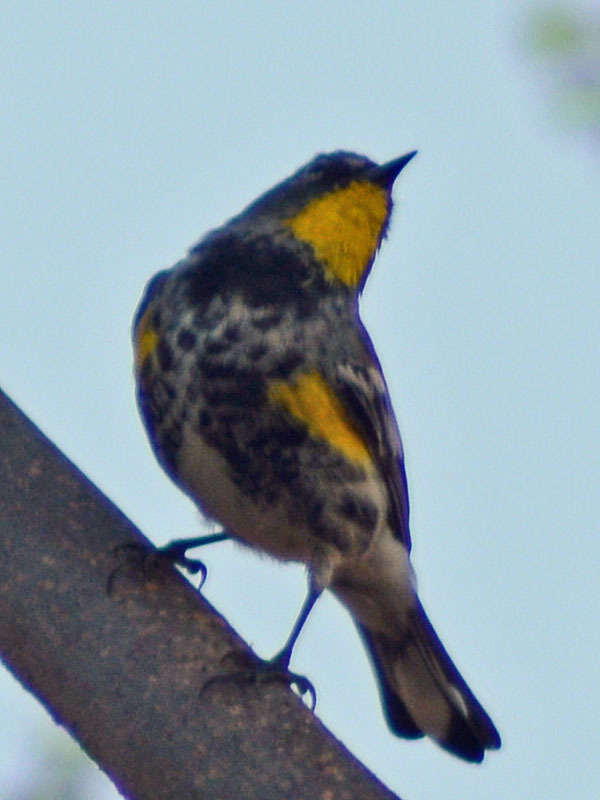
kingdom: Animalia
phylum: Chordata
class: Aves
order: Passeriformes
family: Parulidae
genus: Setophaga
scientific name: Setophaga auduboni
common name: Audubon's warbler
